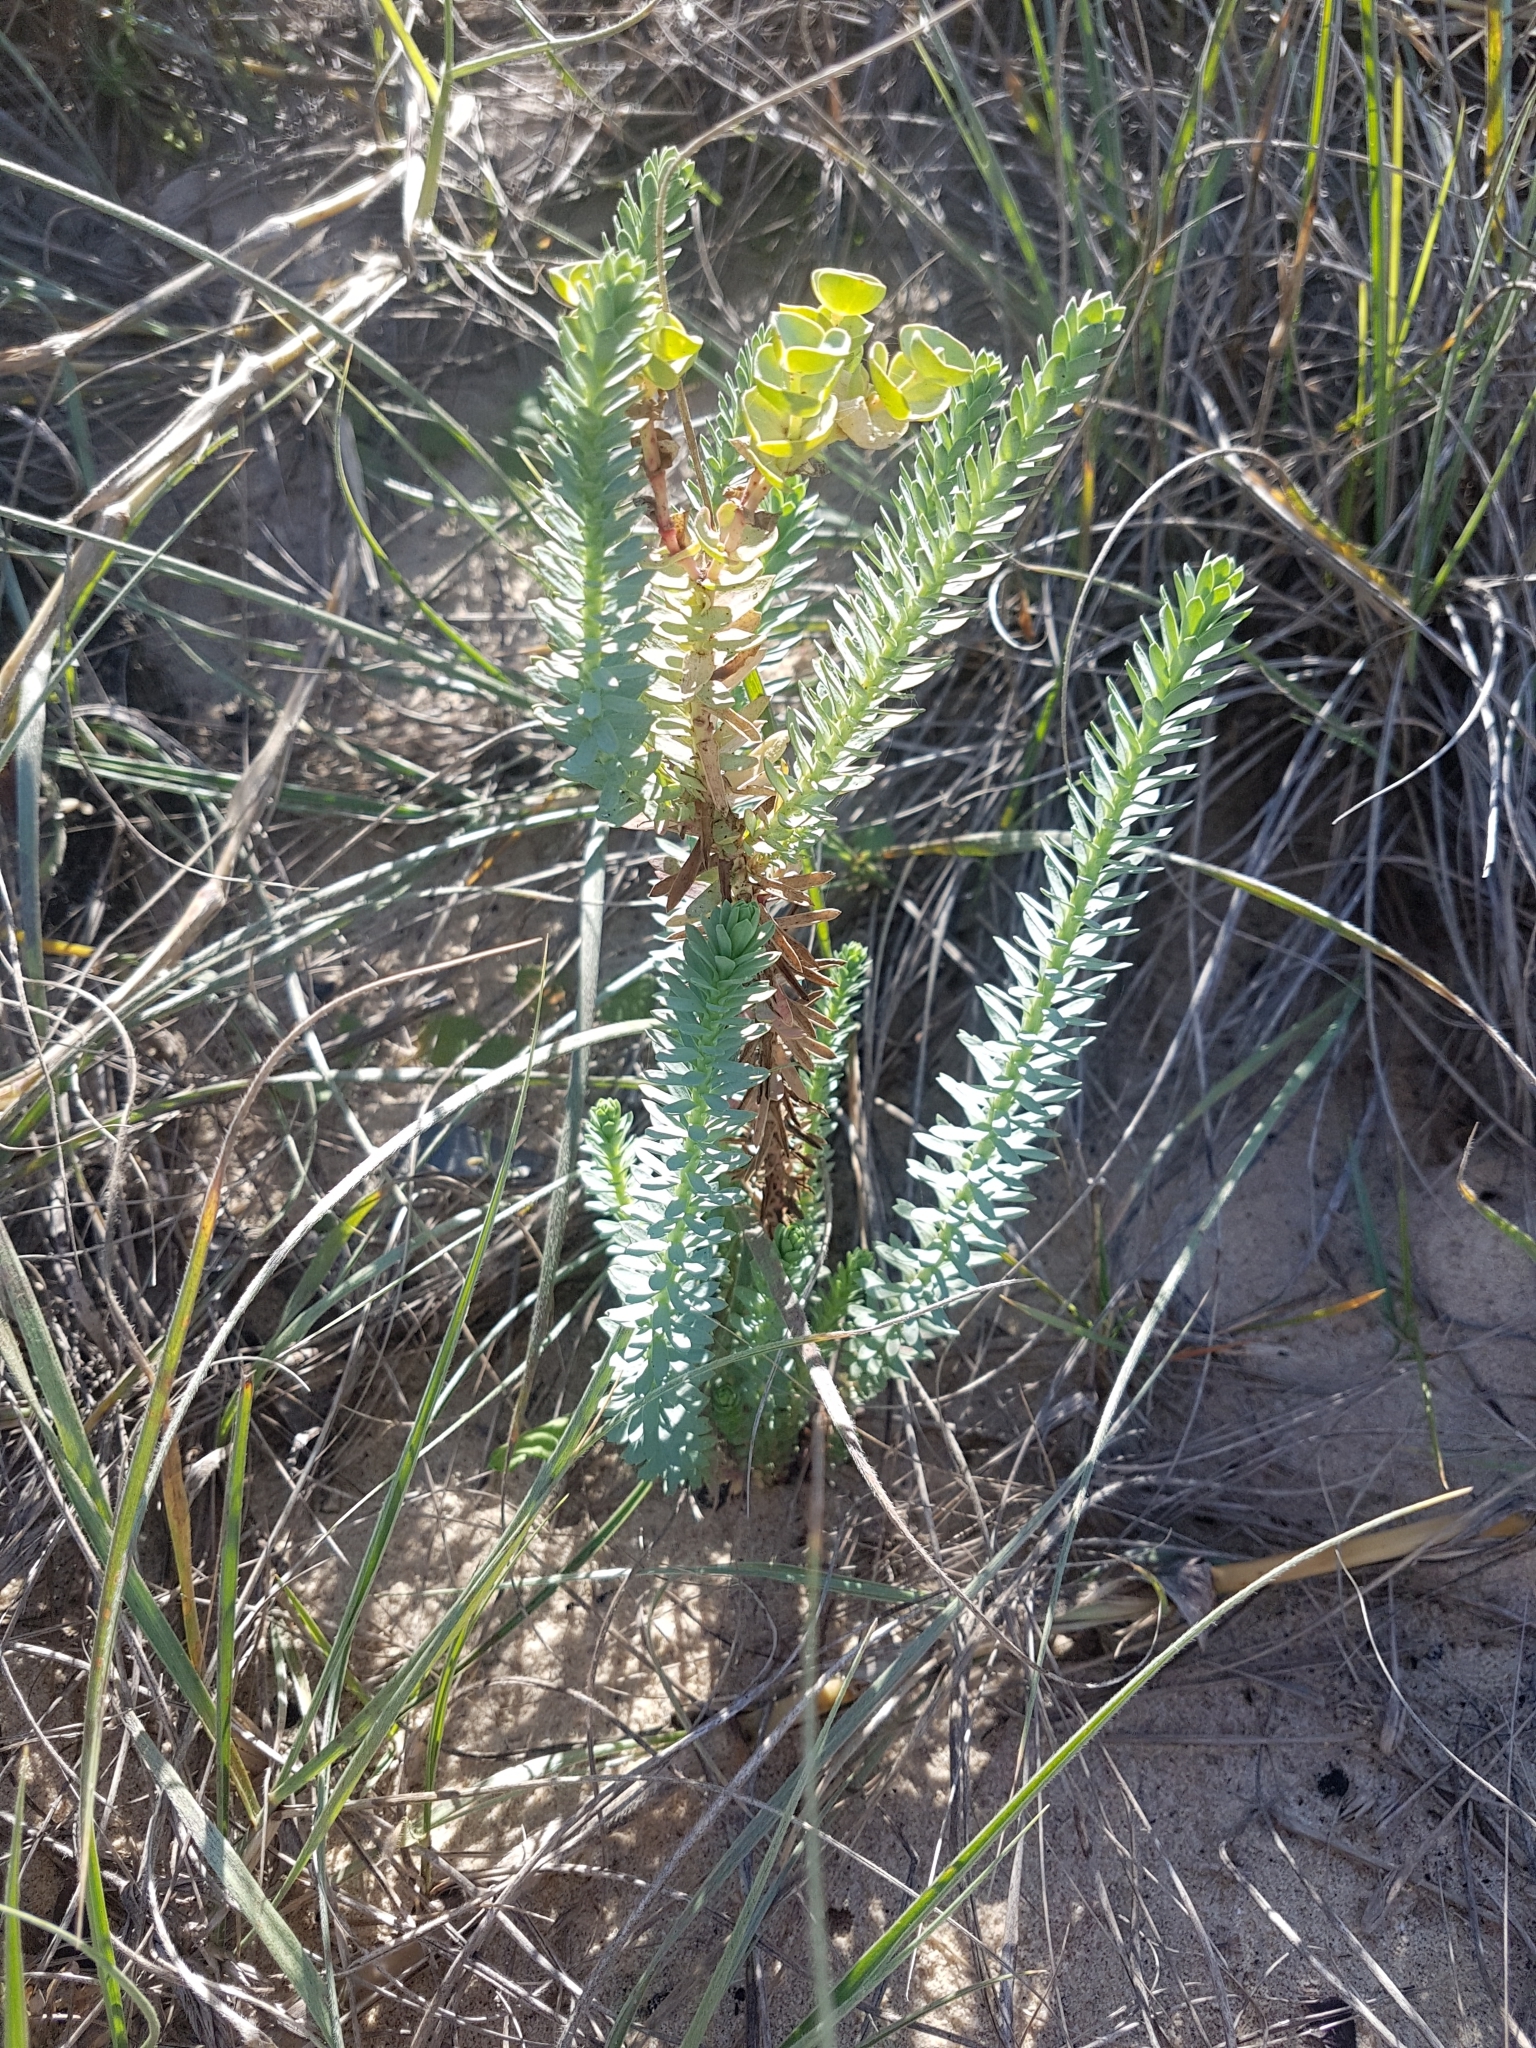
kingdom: Plantae
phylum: Tracheophyta
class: Magnoliopsida
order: Malpighiales
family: Euphorbiaceae
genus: Euphorbia
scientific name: Euphorbia paralias
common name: Sea spurge
